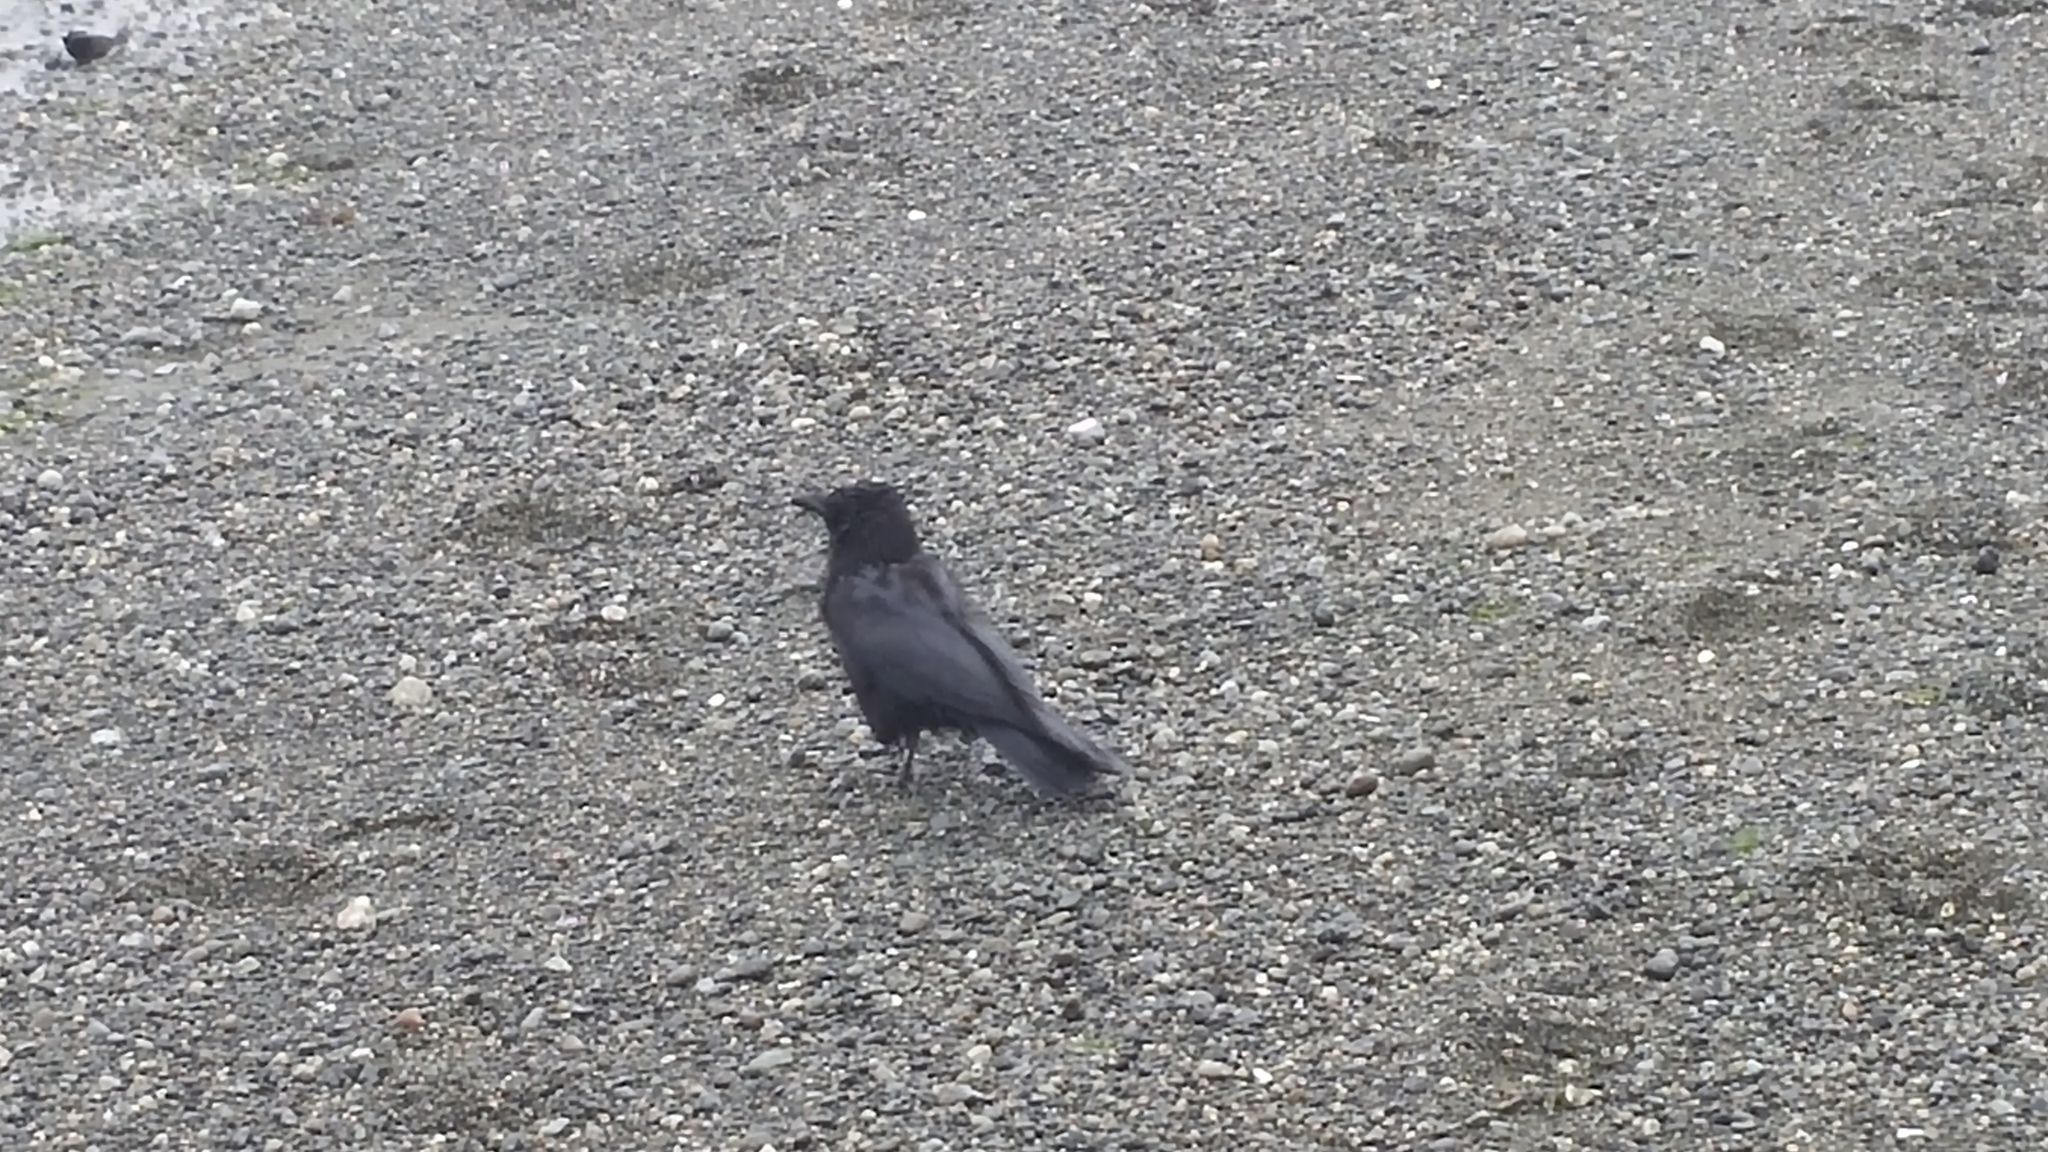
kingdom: Animalia
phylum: Chordata
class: Aves
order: Passeriformes
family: Corvidae
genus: Corvus
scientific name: Corvus brachyrhynchos
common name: American crow
